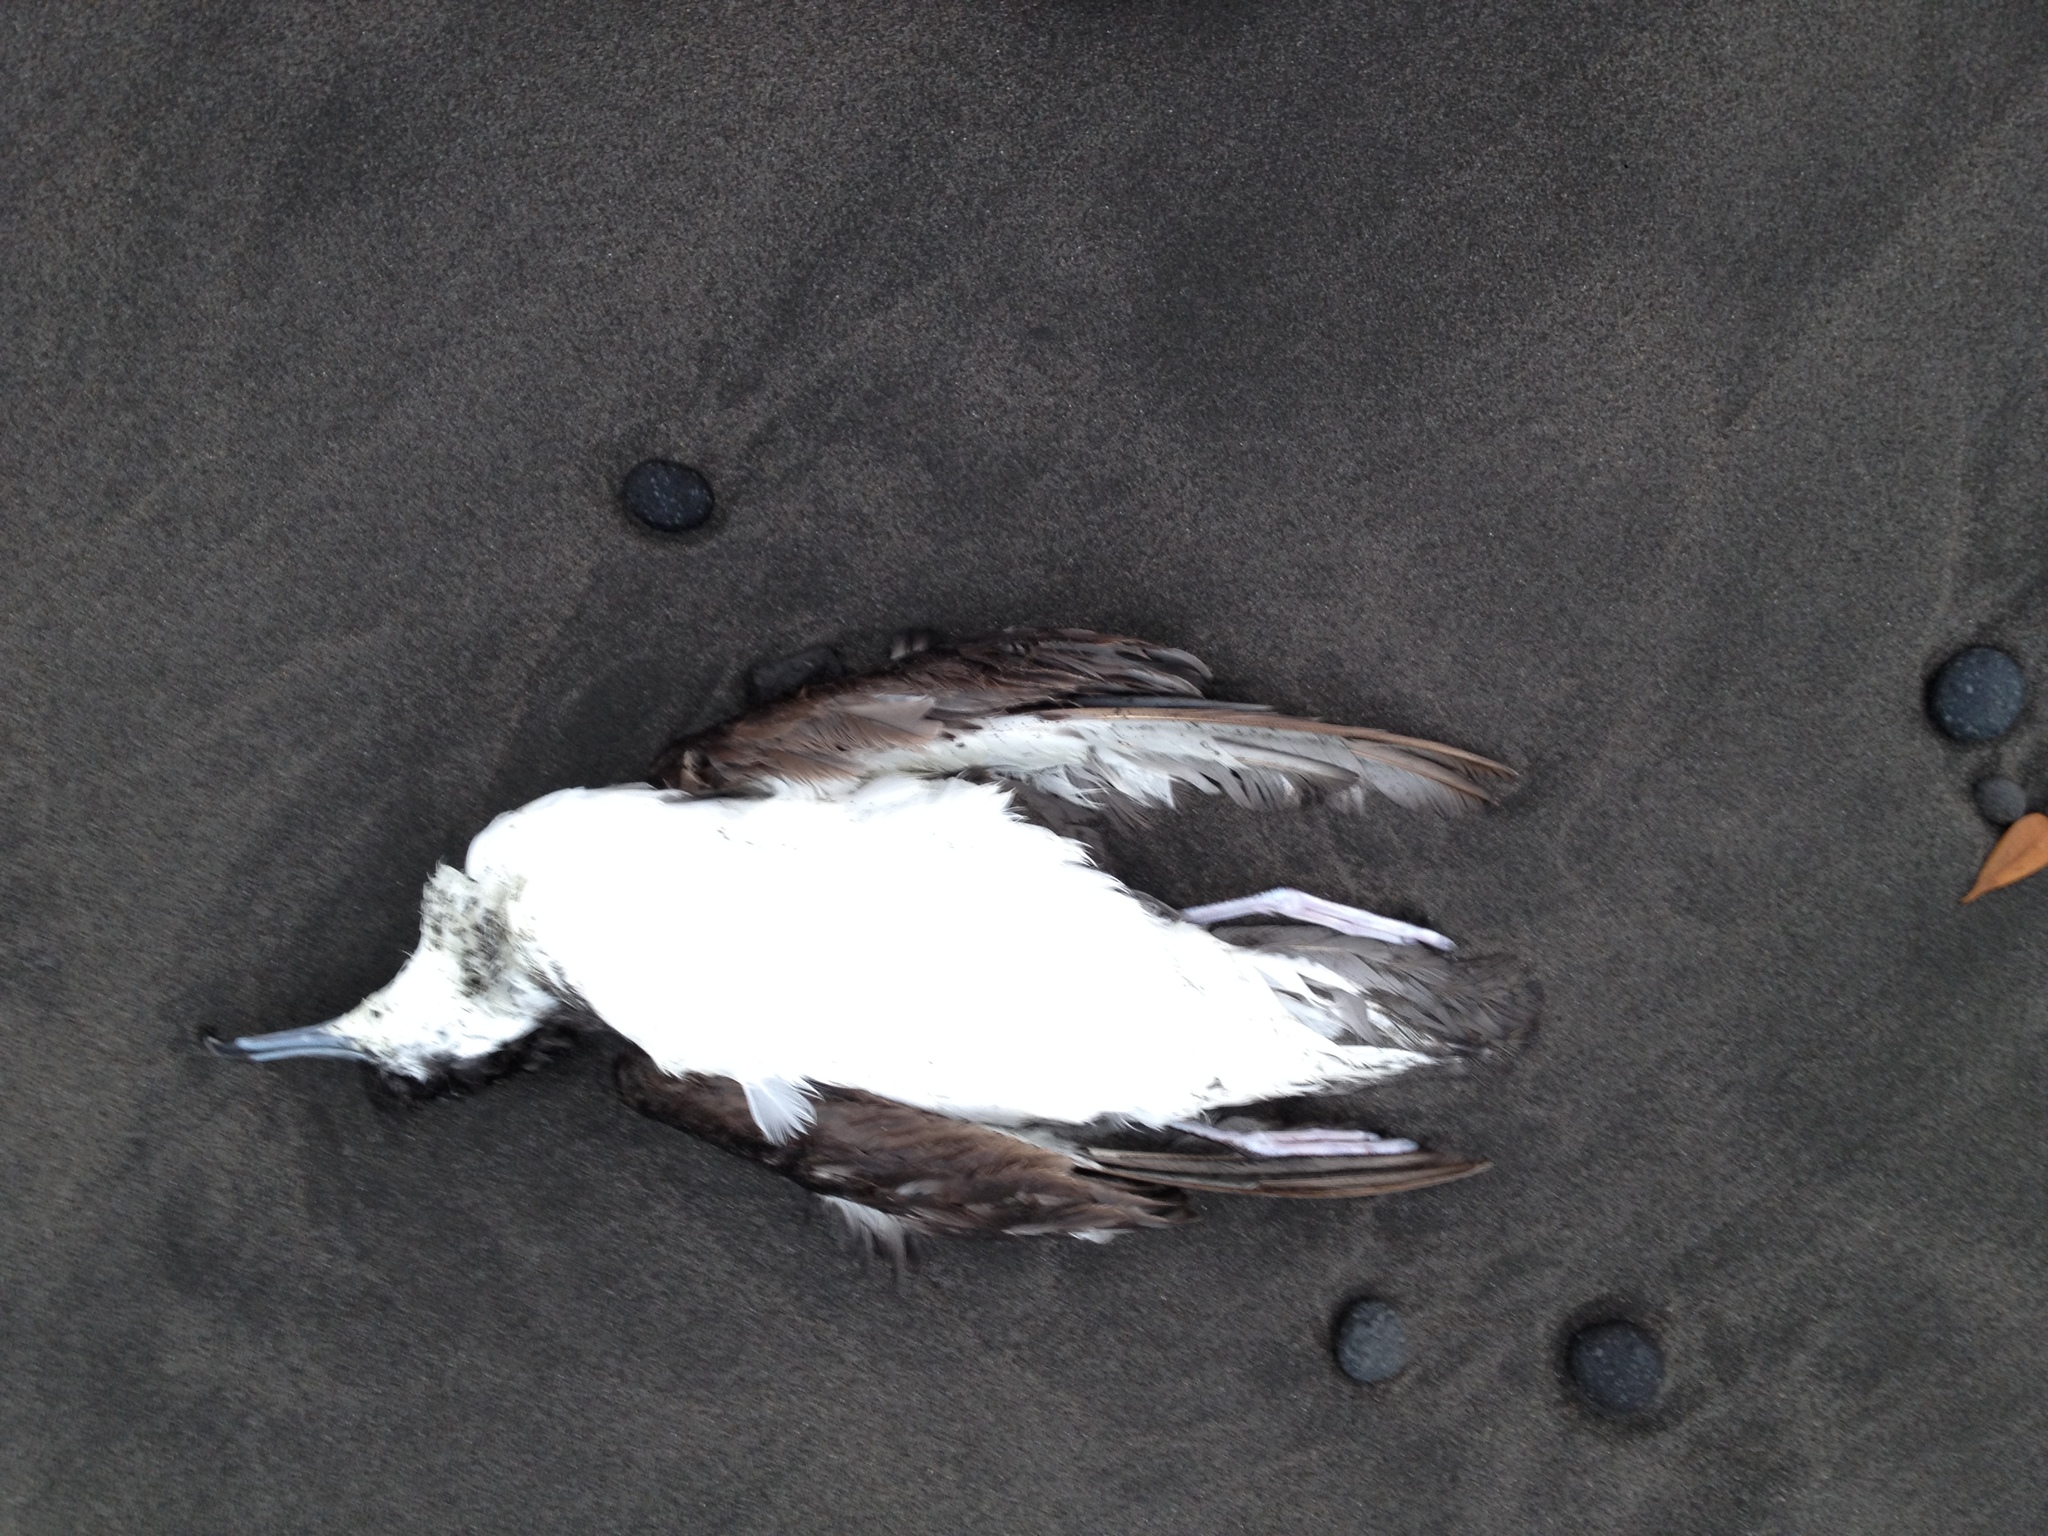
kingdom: Animalia
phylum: Chordata
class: Aves
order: Procellariiformes
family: Procellariidae
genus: Puffinus
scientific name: Puffinus bulleri
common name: Buller's shearwater
